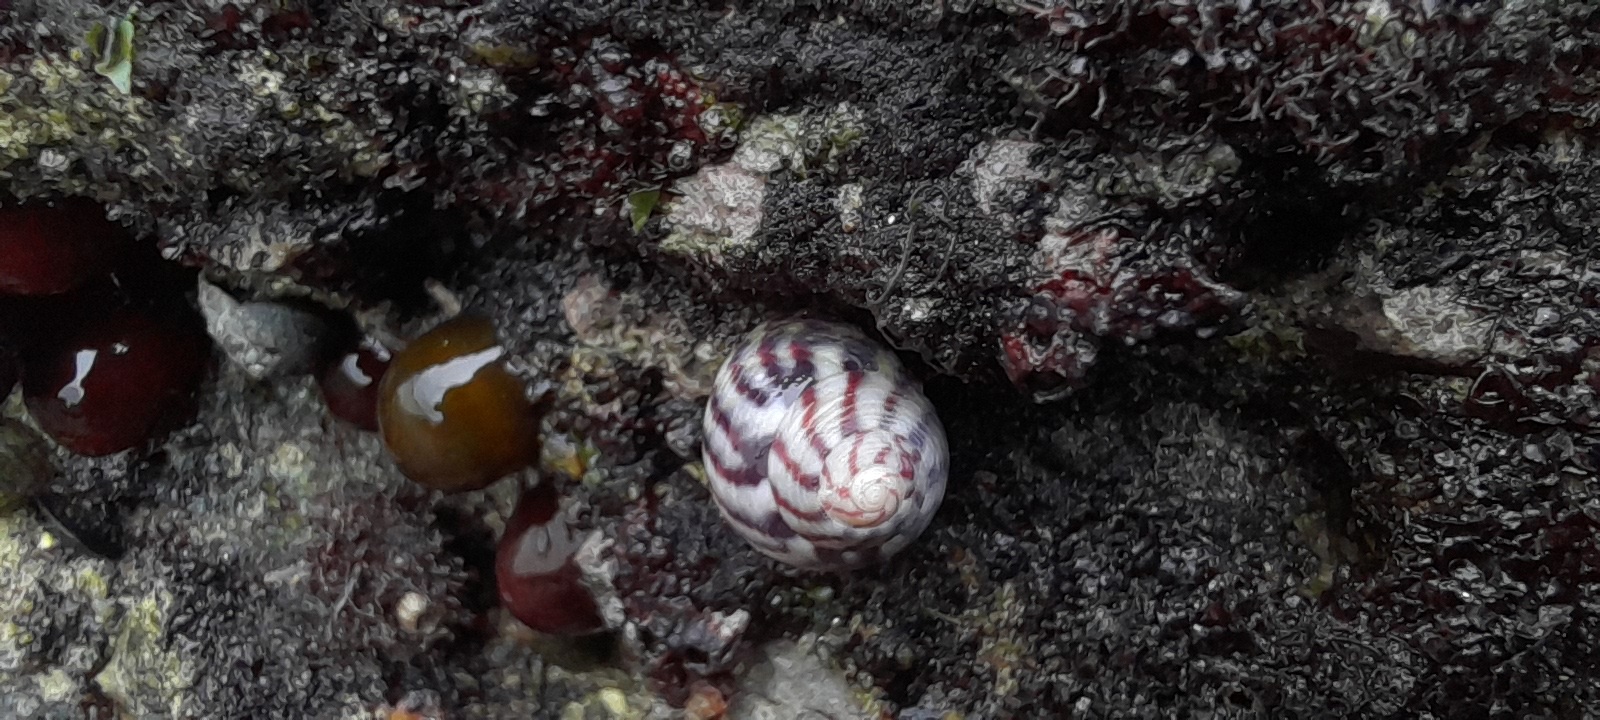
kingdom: Animalia
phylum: Mollusca
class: Gastropoda
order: Trochida
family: Trochidae
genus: Steromphala
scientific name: Steromphala umbilicalis
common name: Flat top shell
